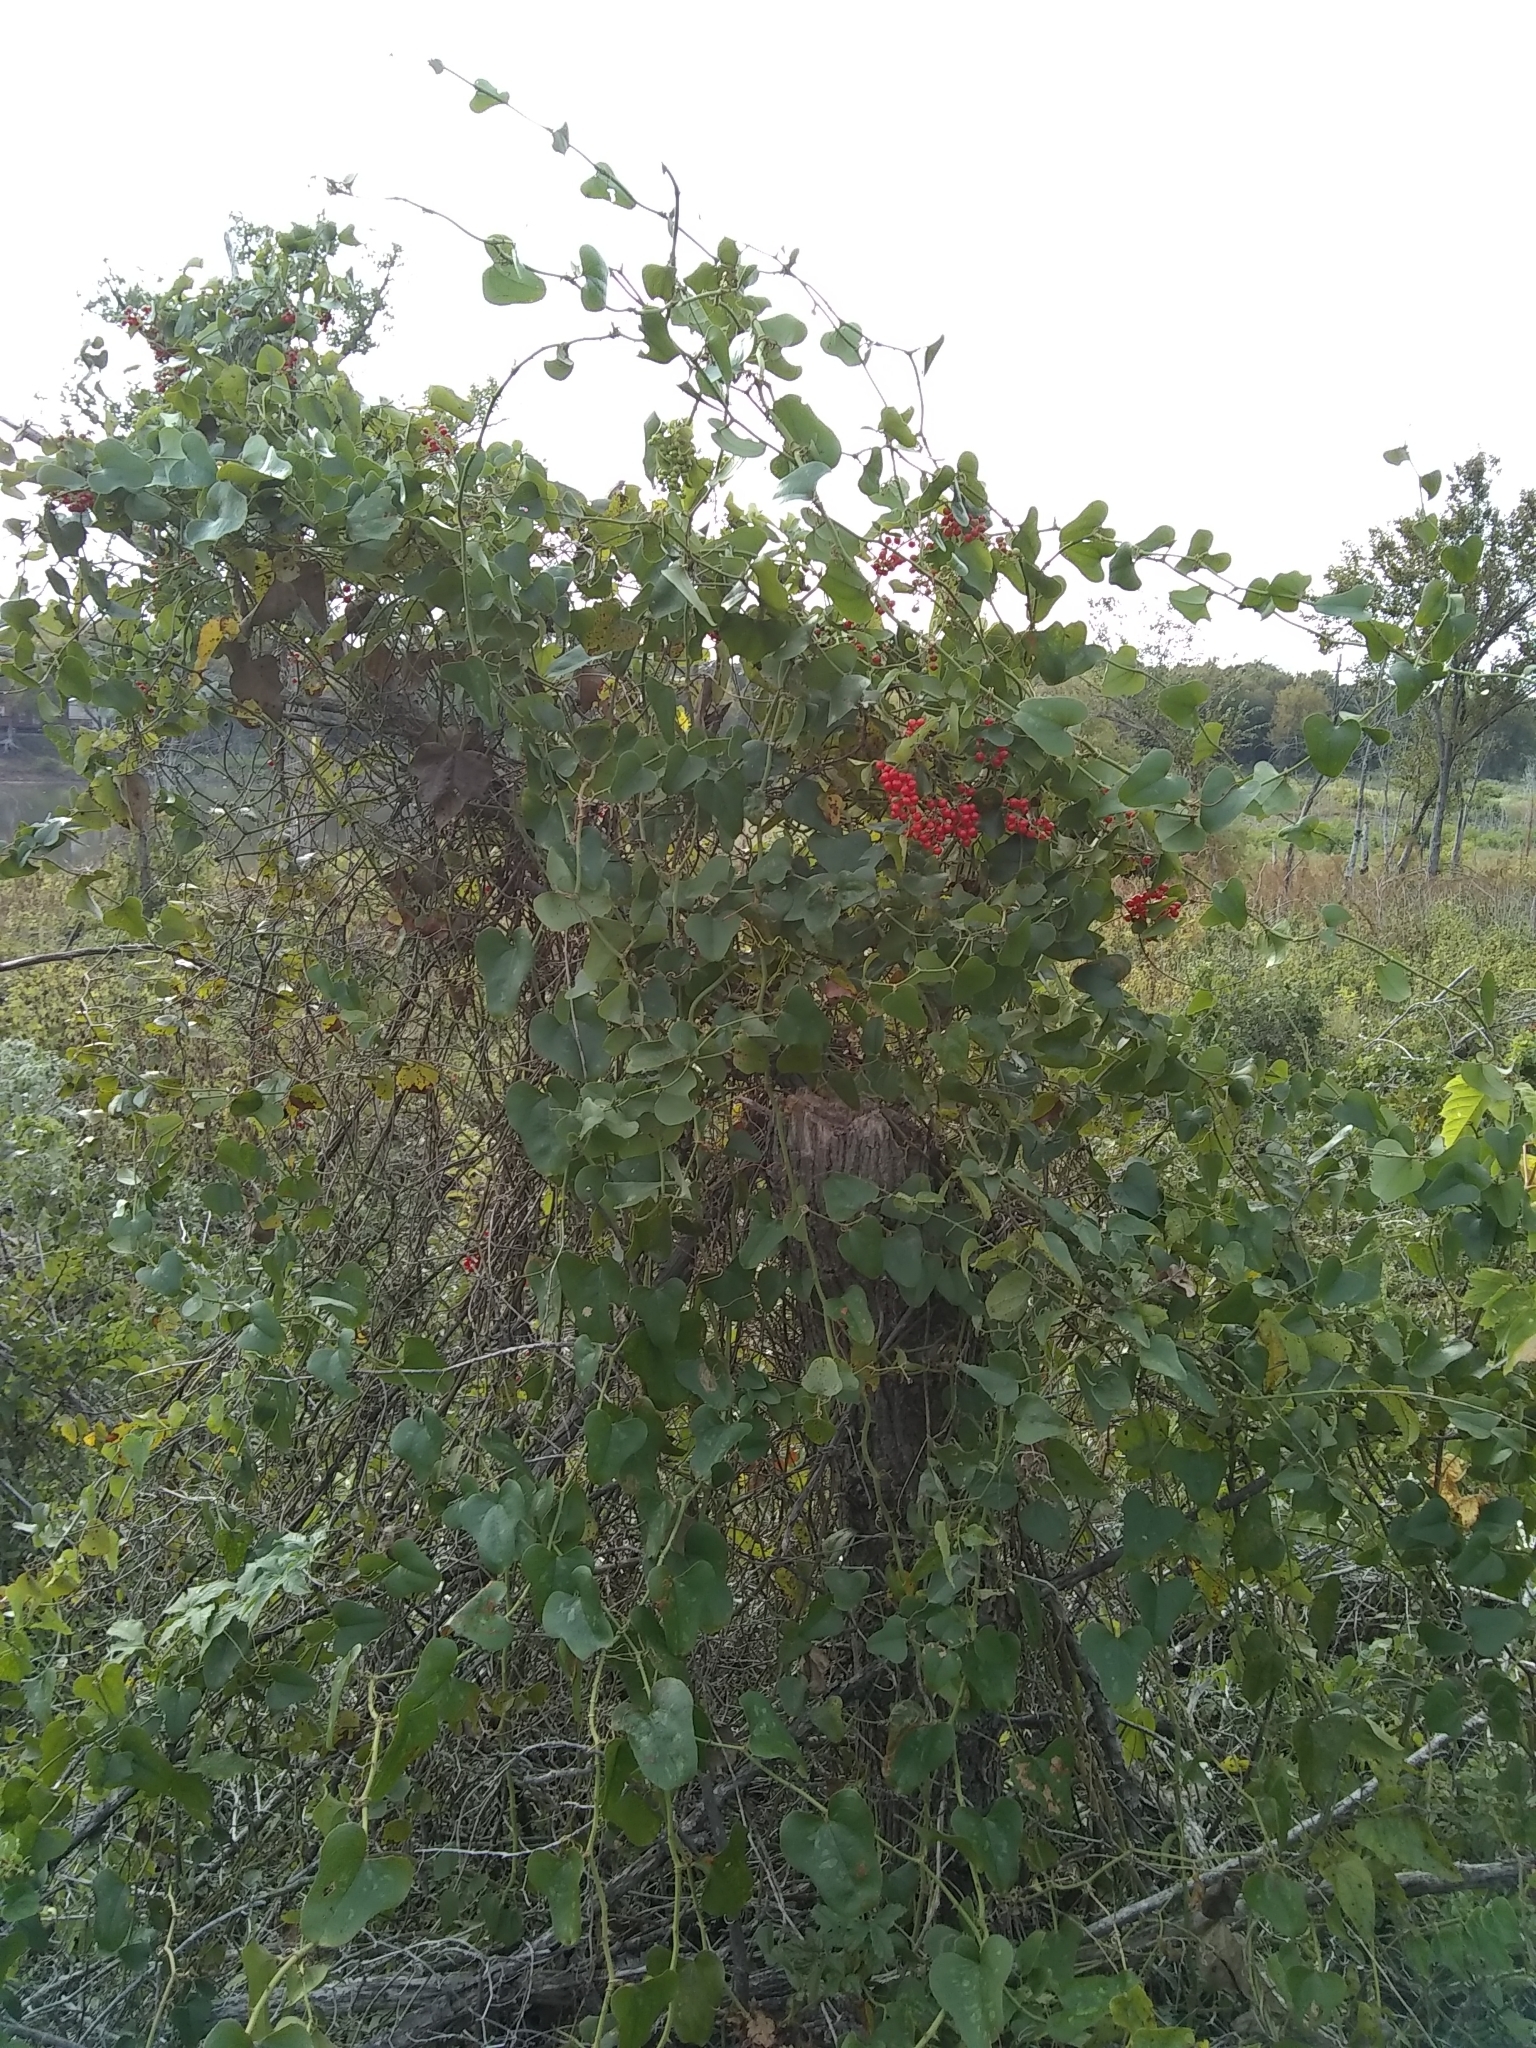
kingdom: Plantae
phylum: Tracheophyta
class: Magnoliopsida
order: Ranunculales
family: Menispermaceae
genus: Cocculus
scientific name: Cocculus carolinus
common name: Carolina moonseed
